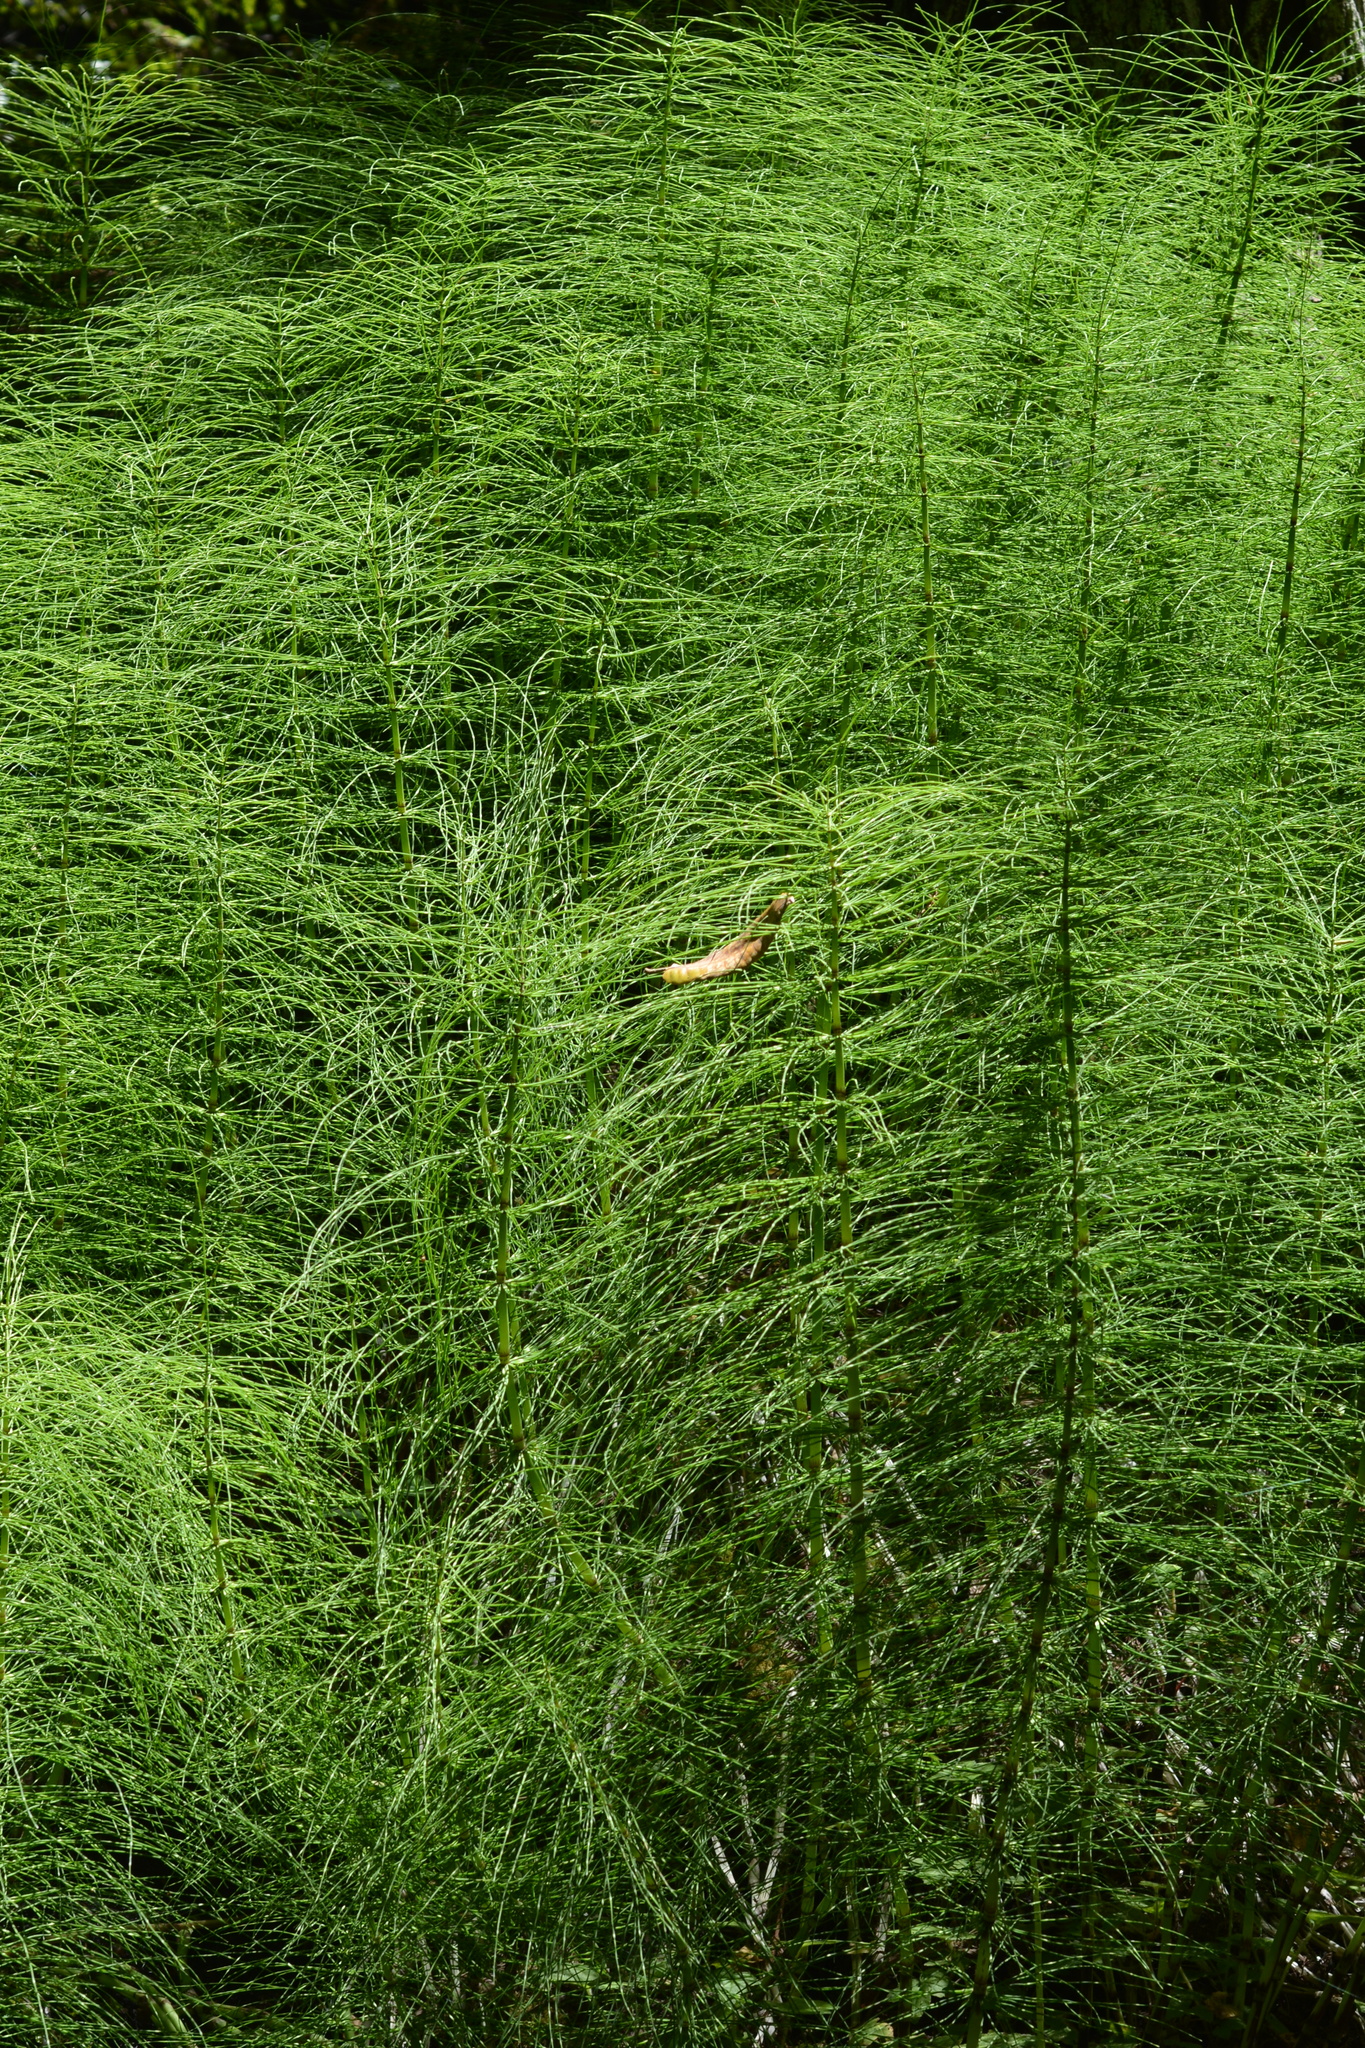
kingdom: Plantae
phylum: Tracheophyta
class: Polypodiopsida
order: Equisetales
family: Equisetaceae
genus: Equisetum
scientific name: Equisetum telmateia
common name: Great horsetail
